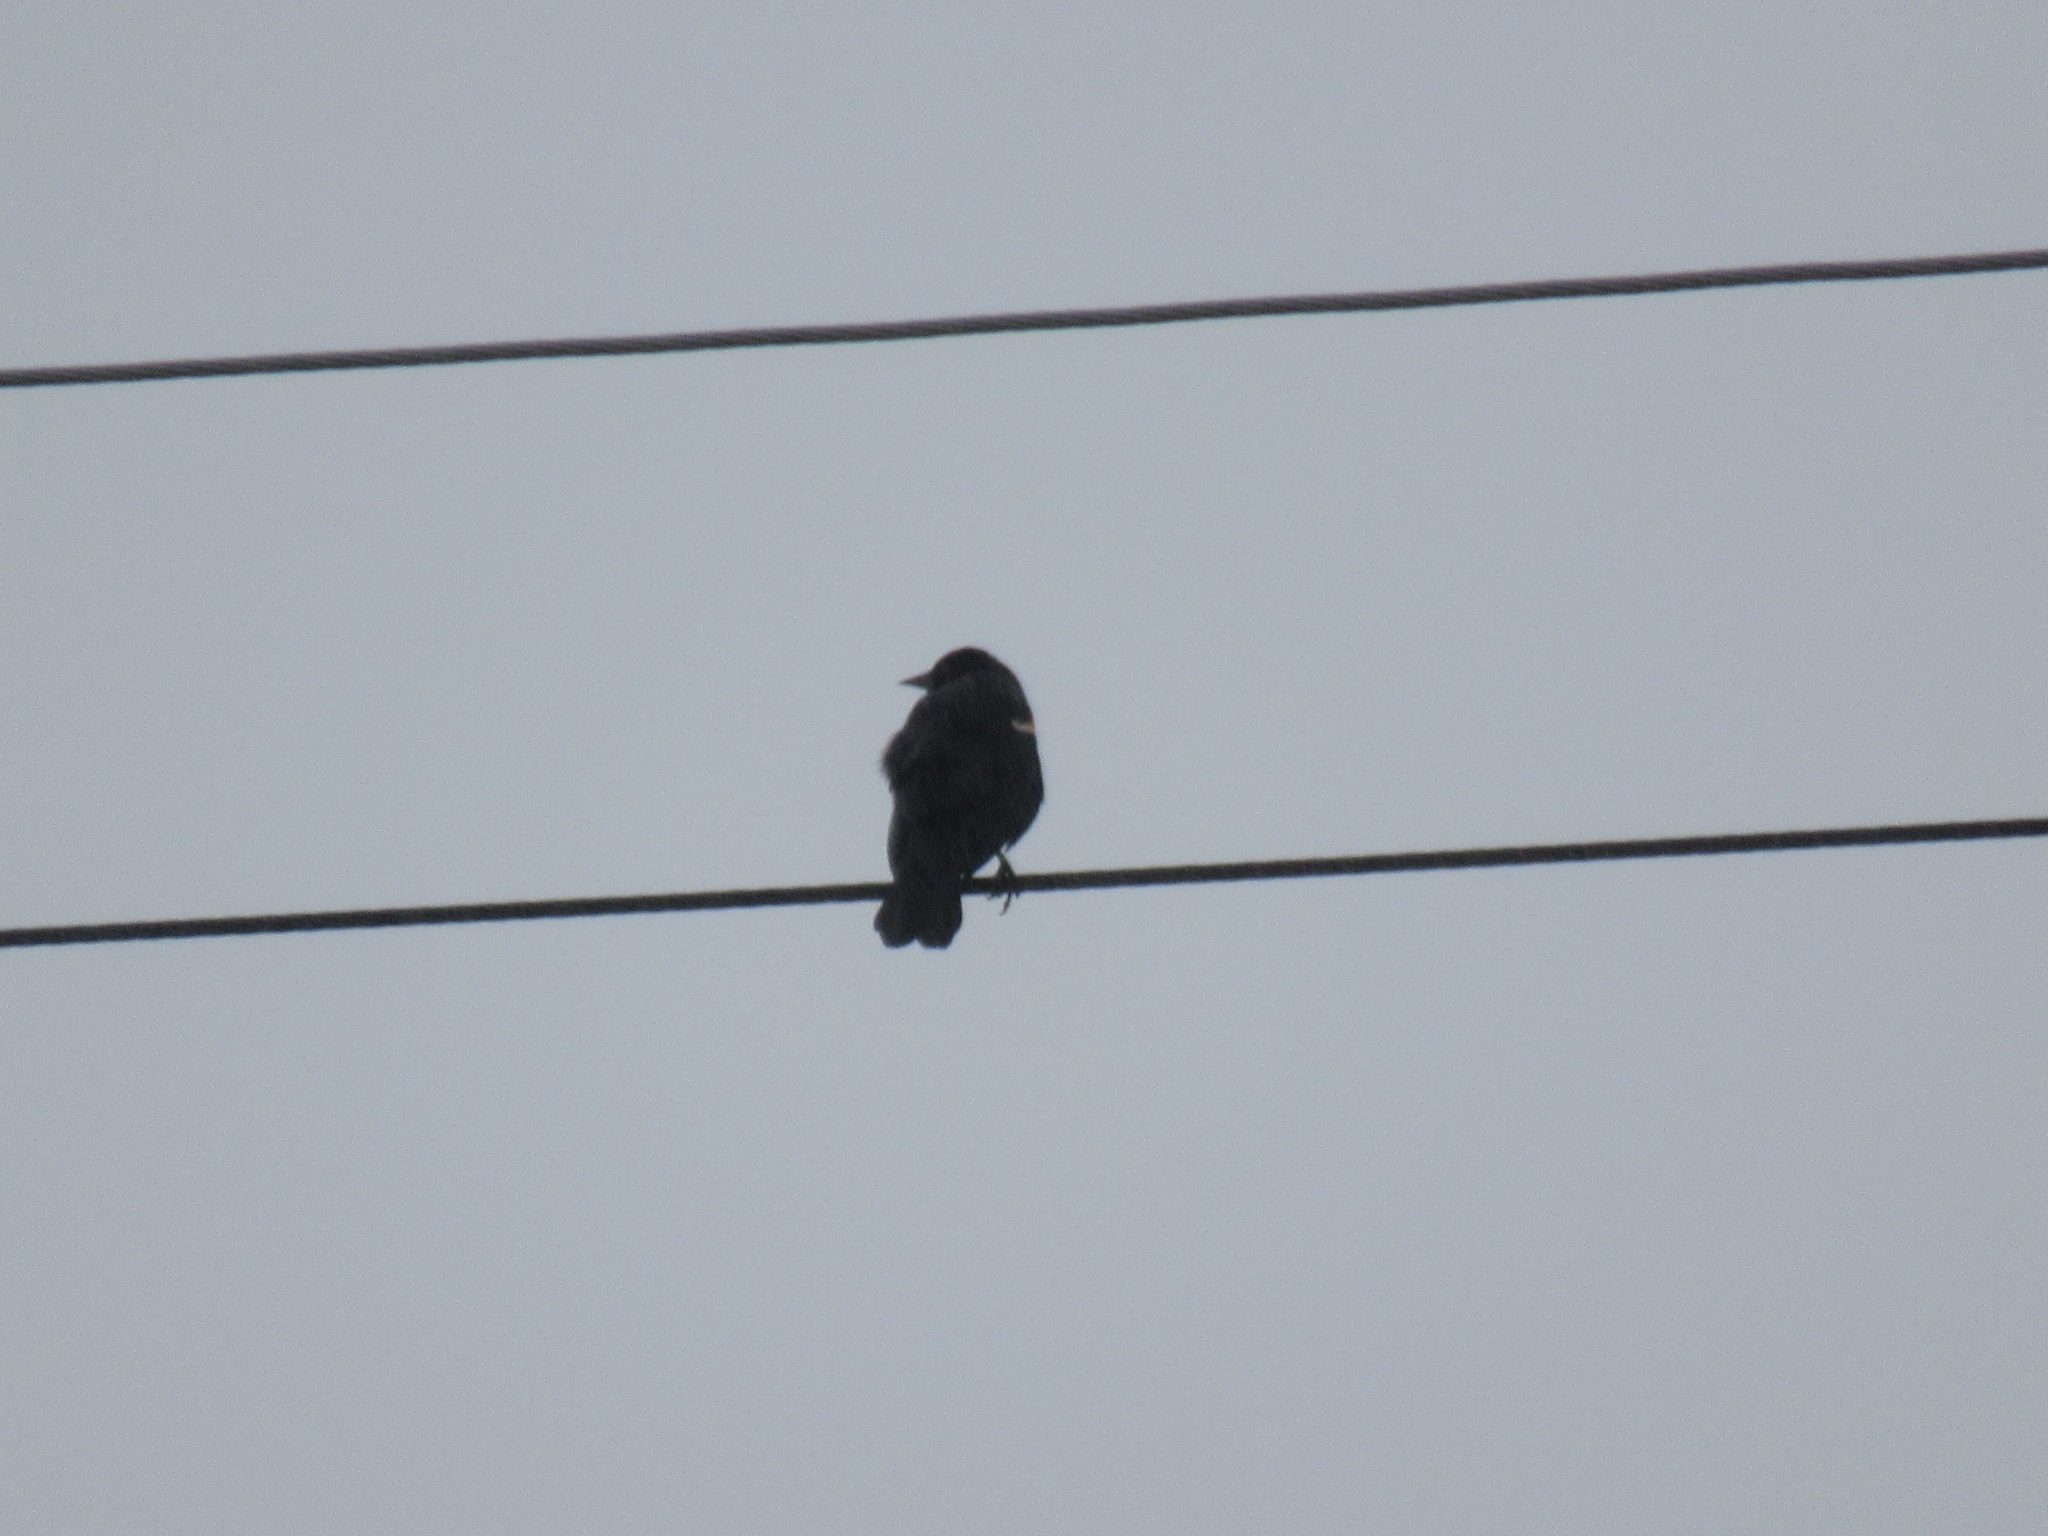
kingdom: Animalia
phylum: Chordata
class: Aves
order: Passeriformes
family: Icteridae
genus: Agelaius
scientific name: Agelaius phoeniceus
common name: Red-winged blackbird
